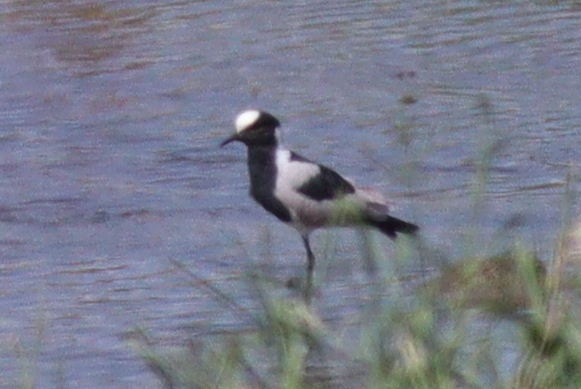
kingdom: Animalia
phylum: Chordata
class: Aves
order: Charadriiformes
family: Charadriidae
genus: Vanellus
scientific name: Vanellus armatus
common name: Blacksmith lapwing
